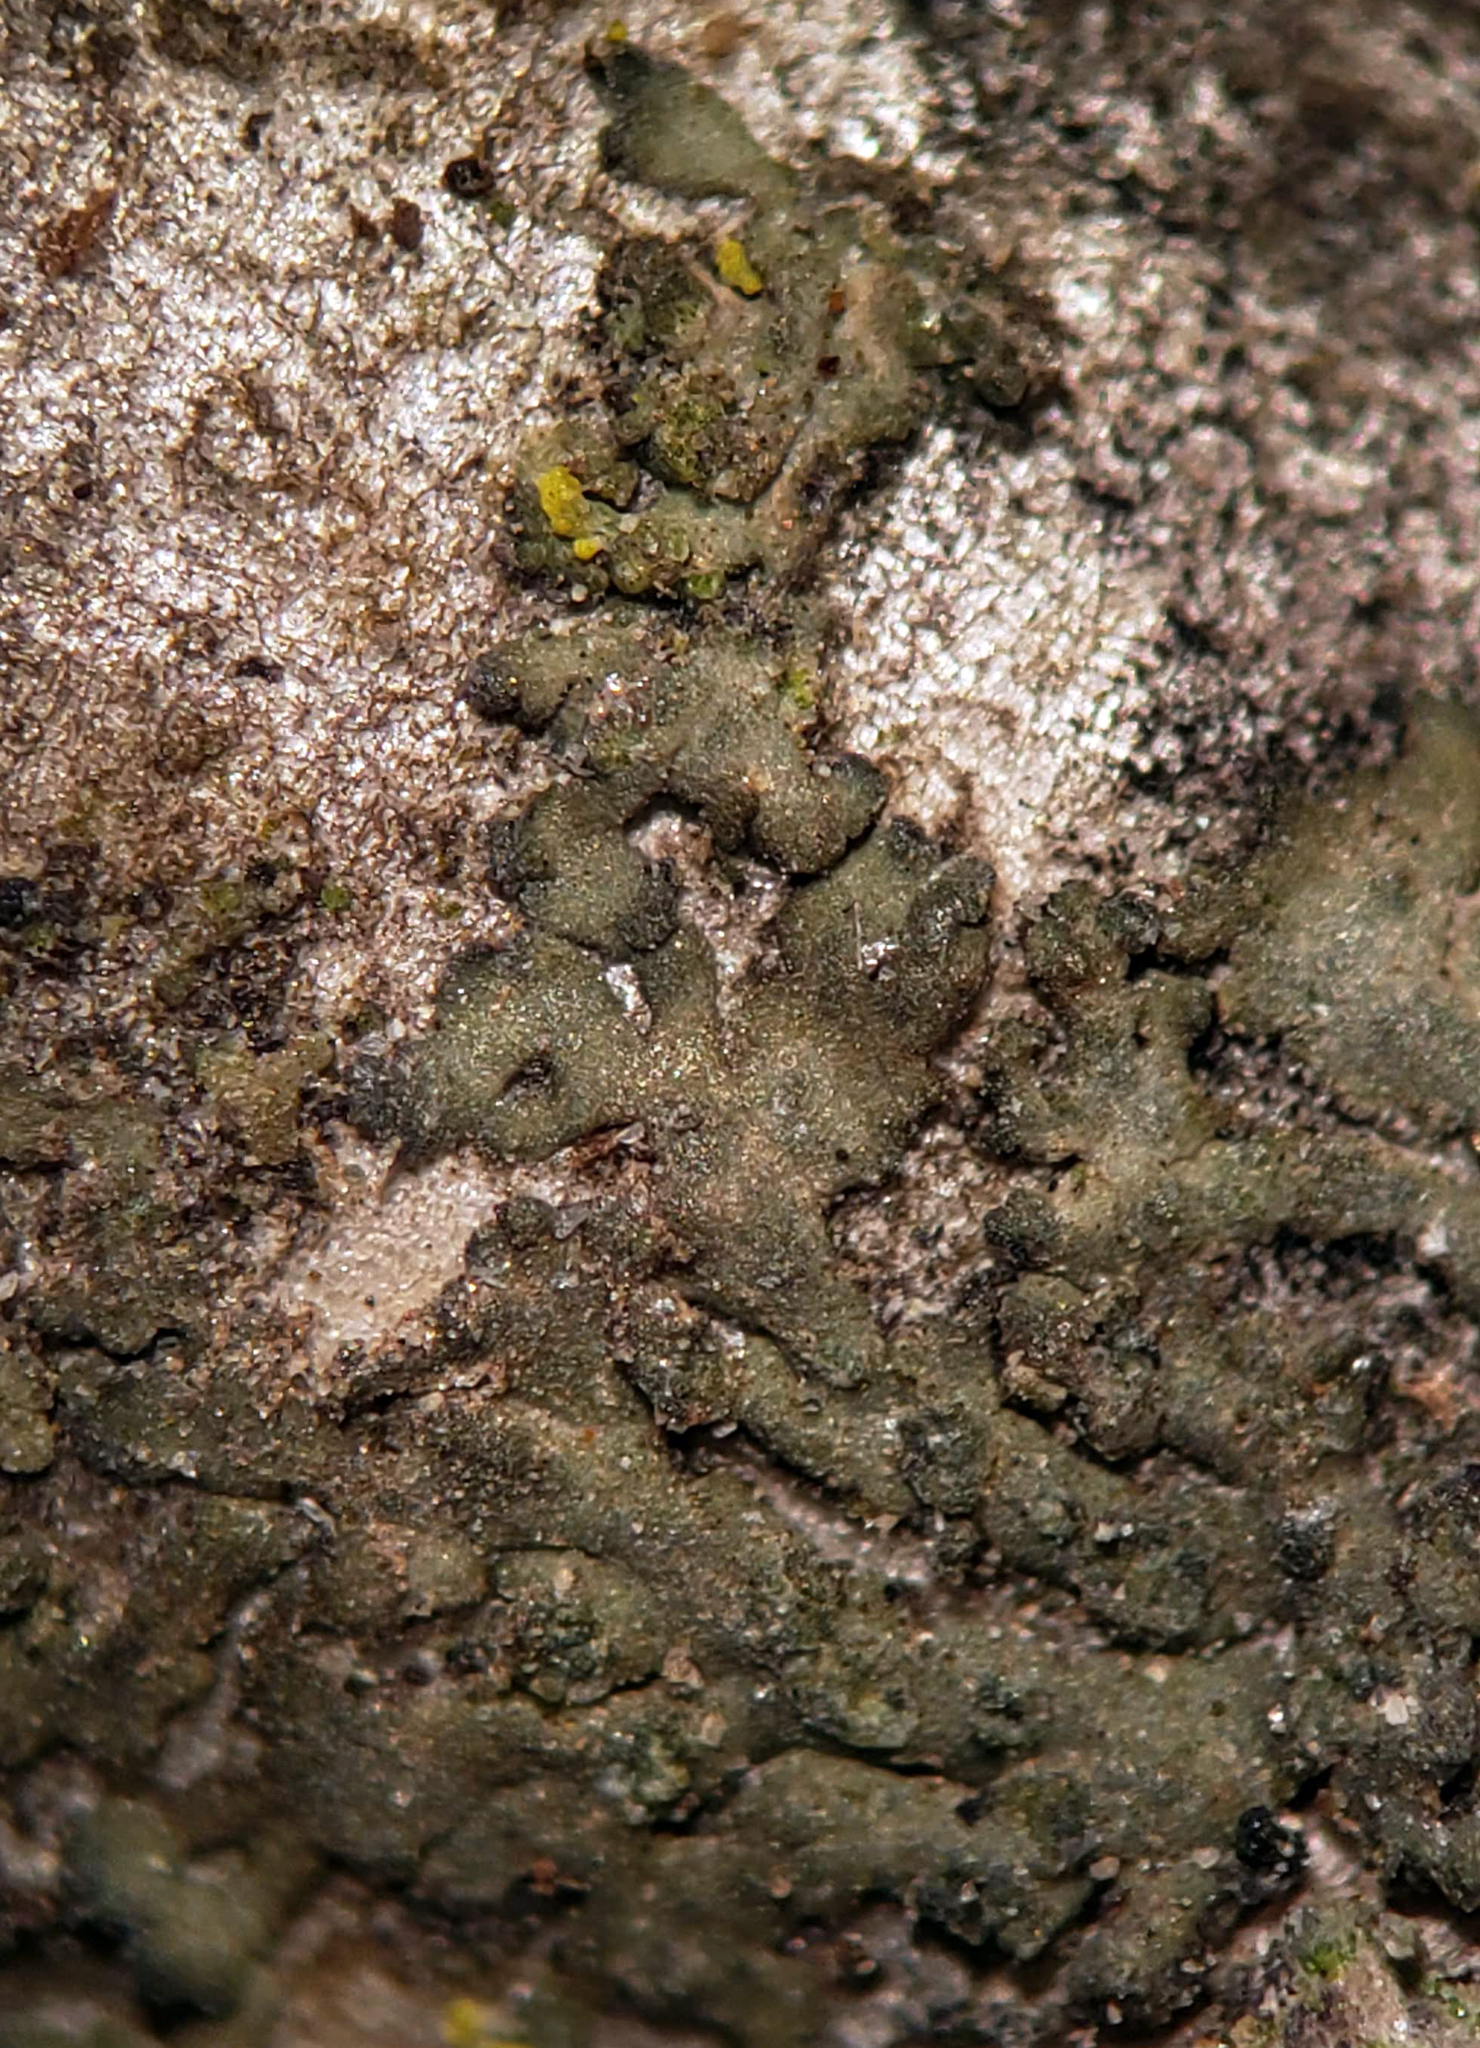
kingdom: Fungi
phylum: Ascomycota
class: Lecanoromycetes
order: Caliciales
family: Physciaceae
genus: Hyperphyscia
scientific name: Hyperphyscia adglutinata
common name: Grainy shadow-crust lichen
